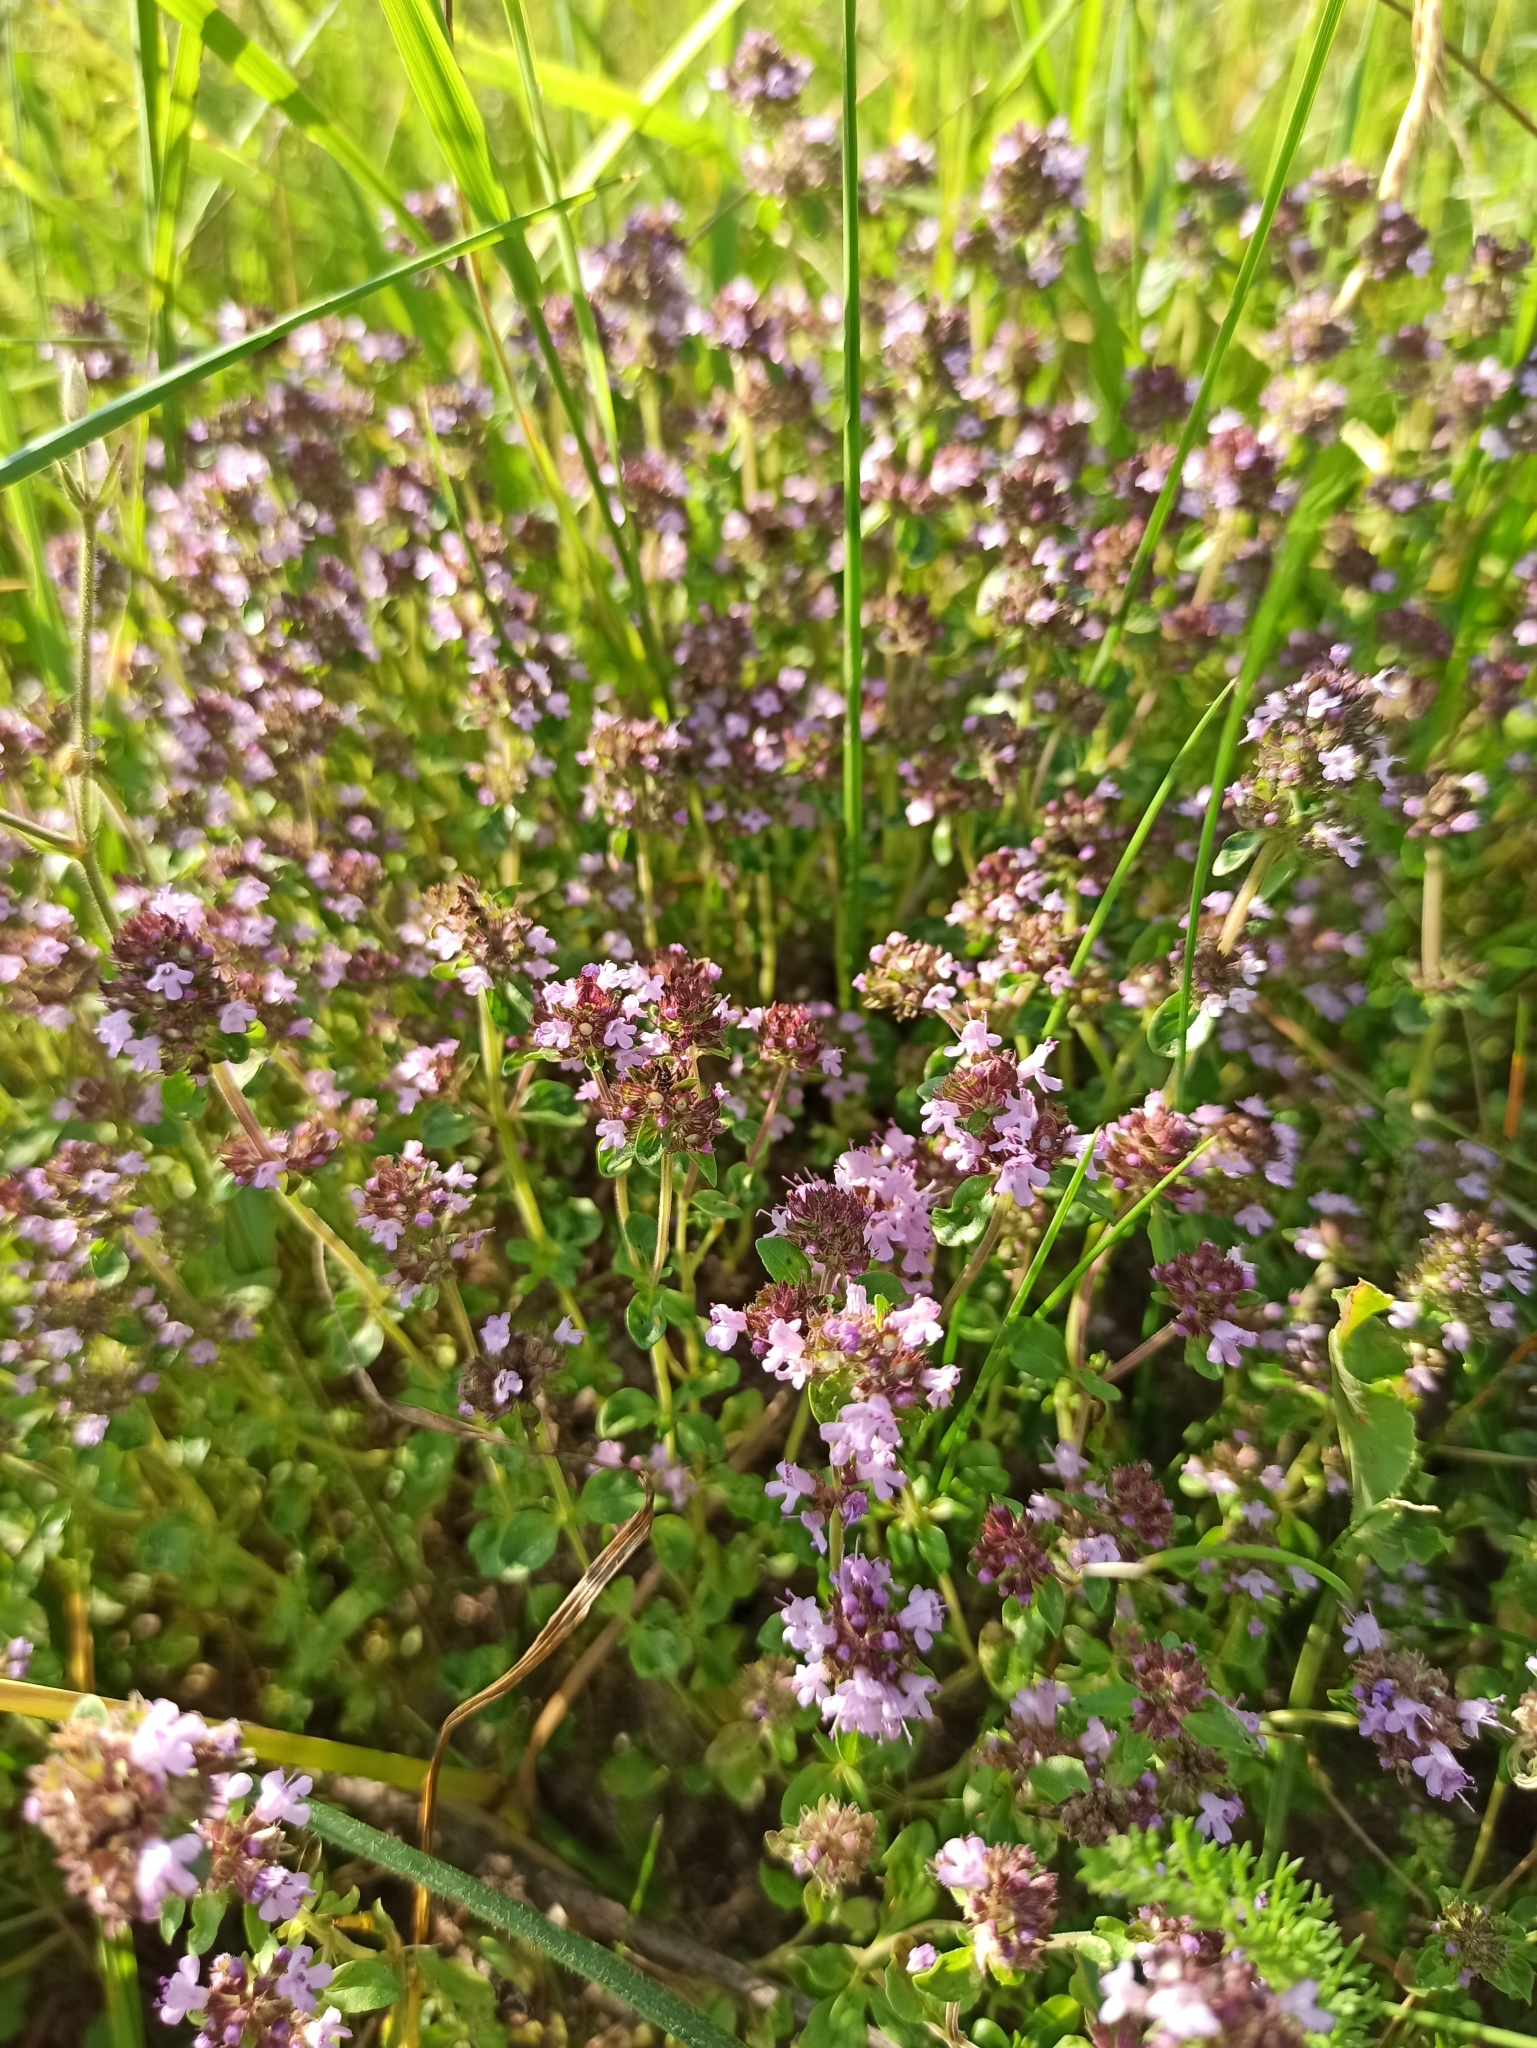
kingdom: Plantae
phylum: Tracheophyta
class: Magnoliopsida
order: Lamiales
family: Lamiaceae
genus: Thymus
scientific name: Thymus pulegioides
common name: Large thyme
